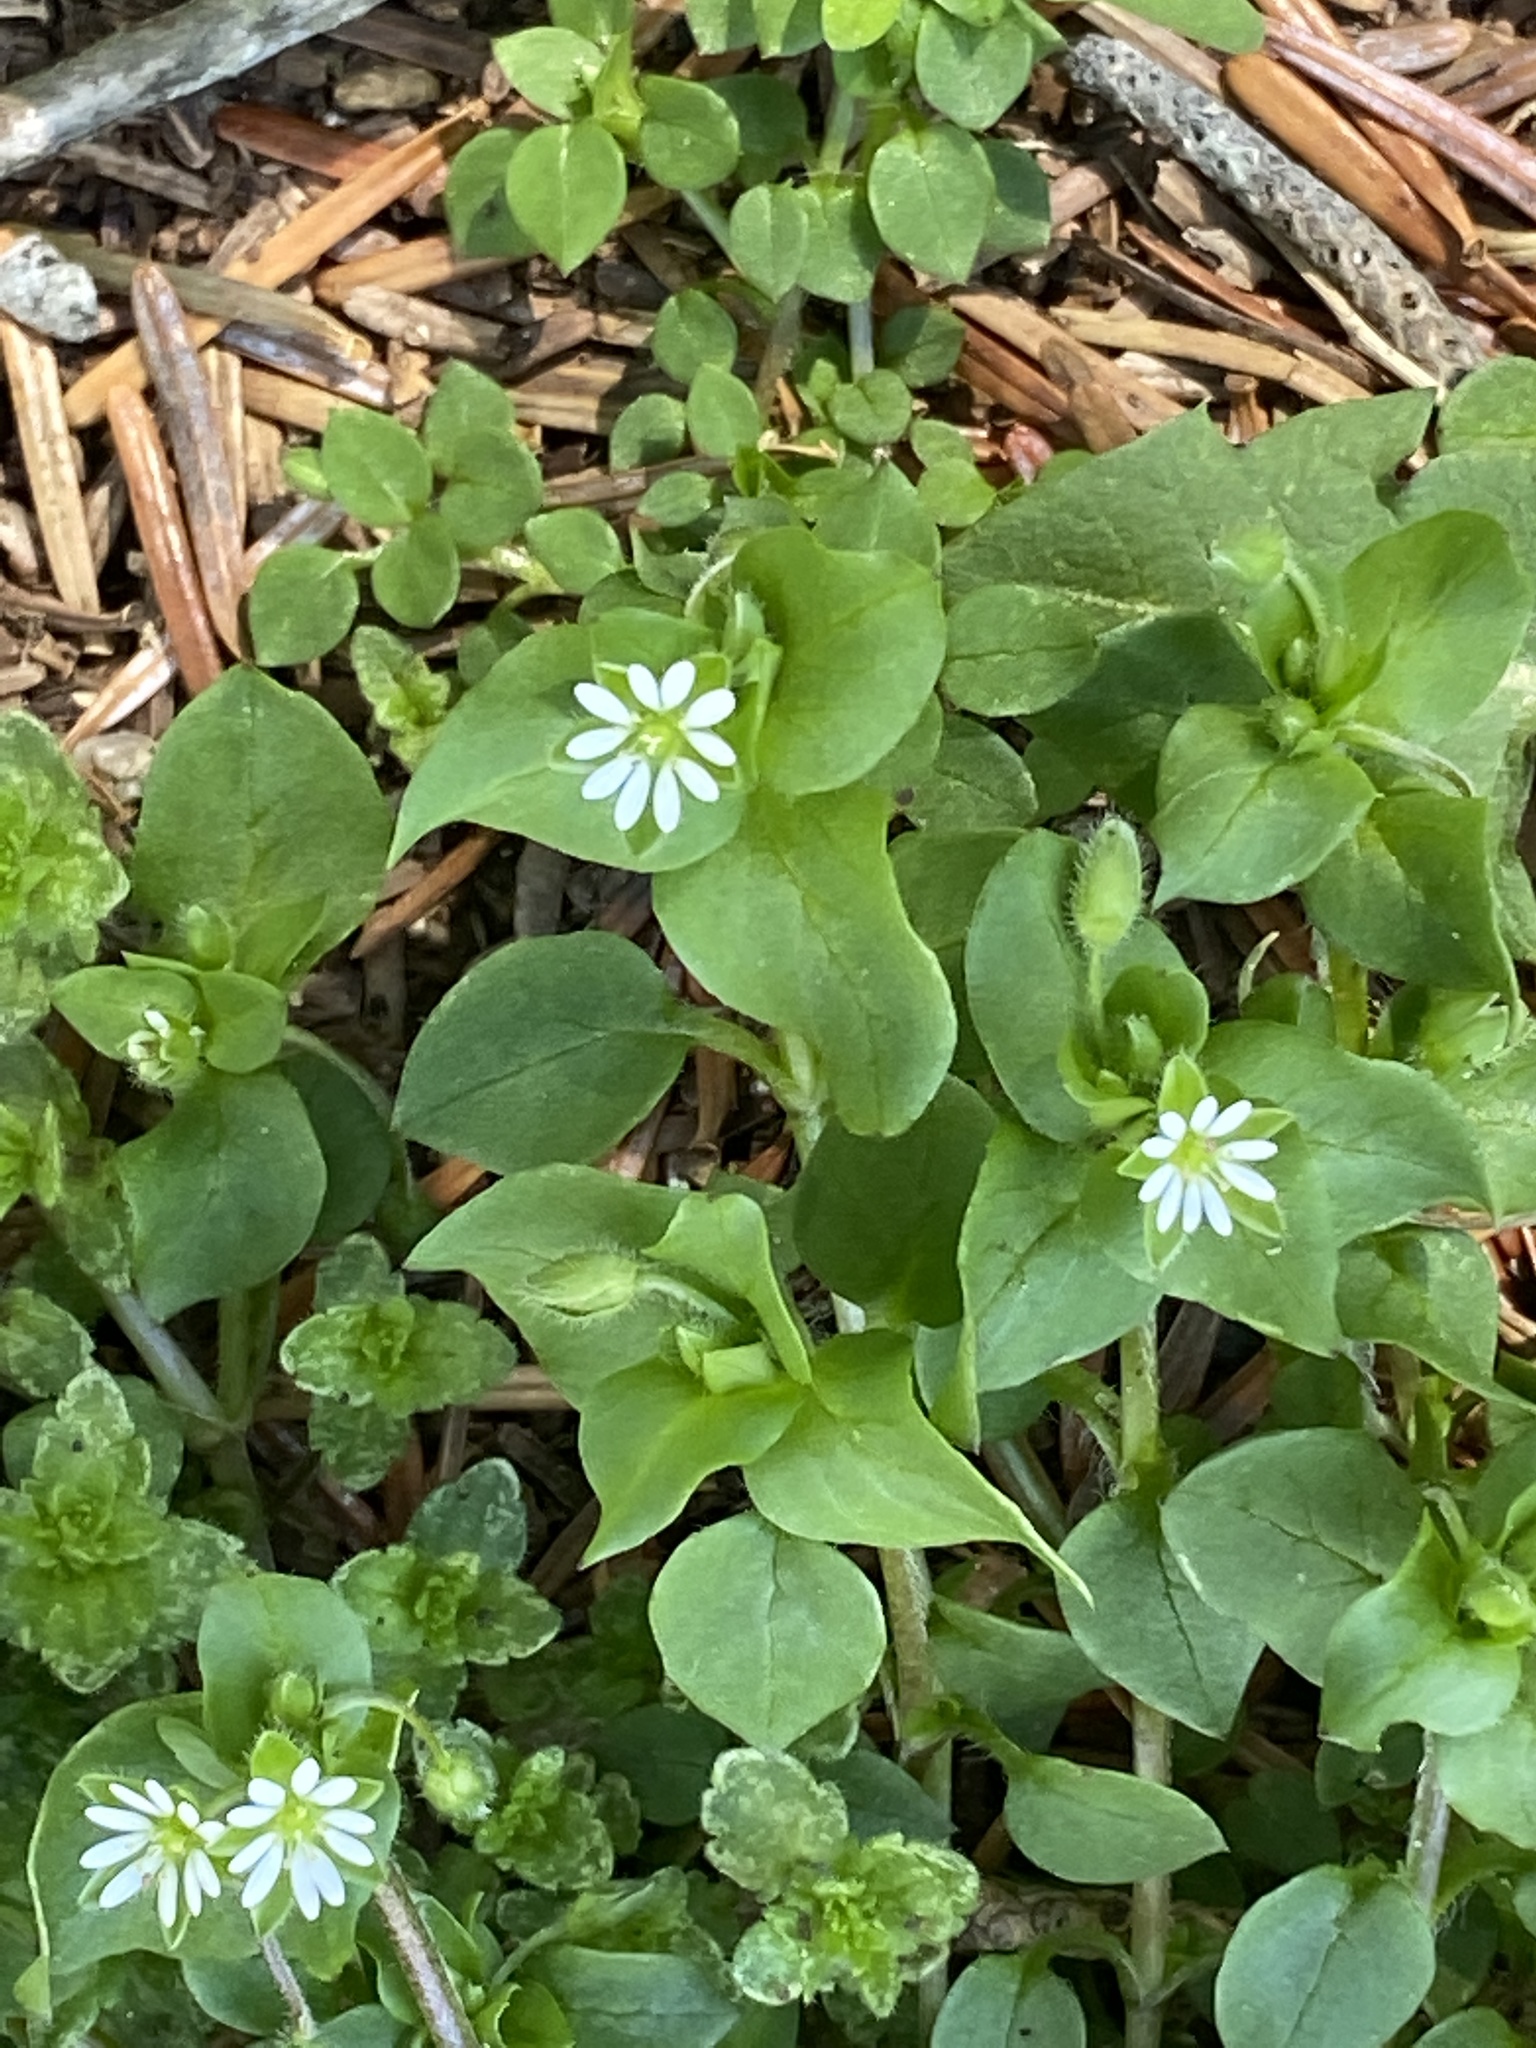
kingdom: Plantae
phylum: Tracheophyta
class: Magnoliopsida
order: Caryophyllales
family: Caryophyllaceae
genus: Stellaria
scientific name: Stellaria media
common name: Common chickweed
